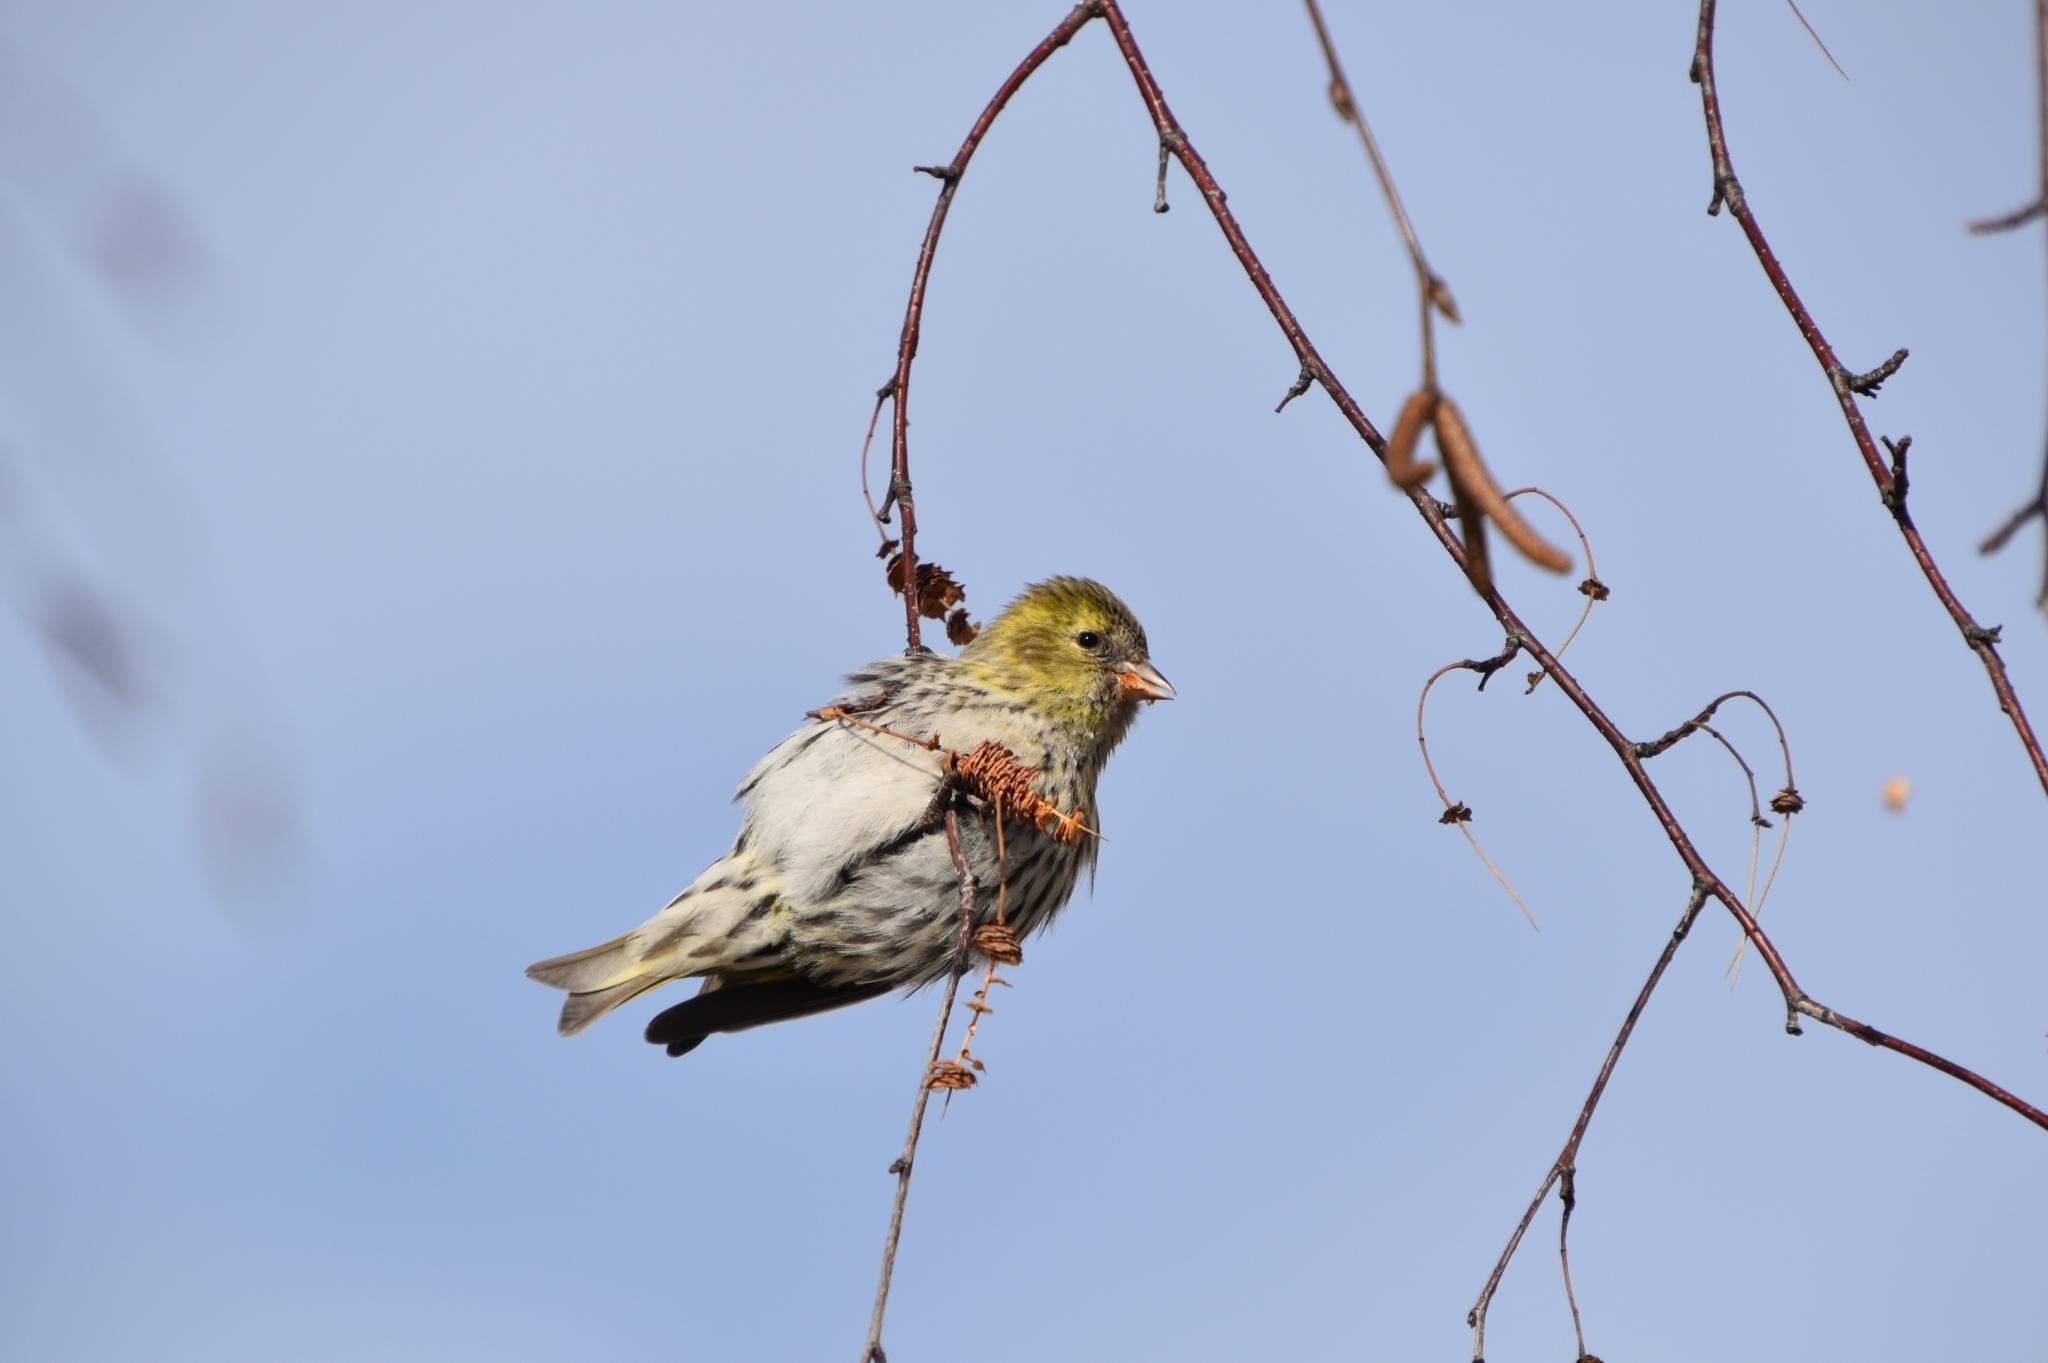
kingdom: Animalia
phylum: Chordata
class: Aves
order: Passeriformes
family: Fringillidae
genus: Spinus
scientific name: Spinus spinus
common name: Eurasian siskin
